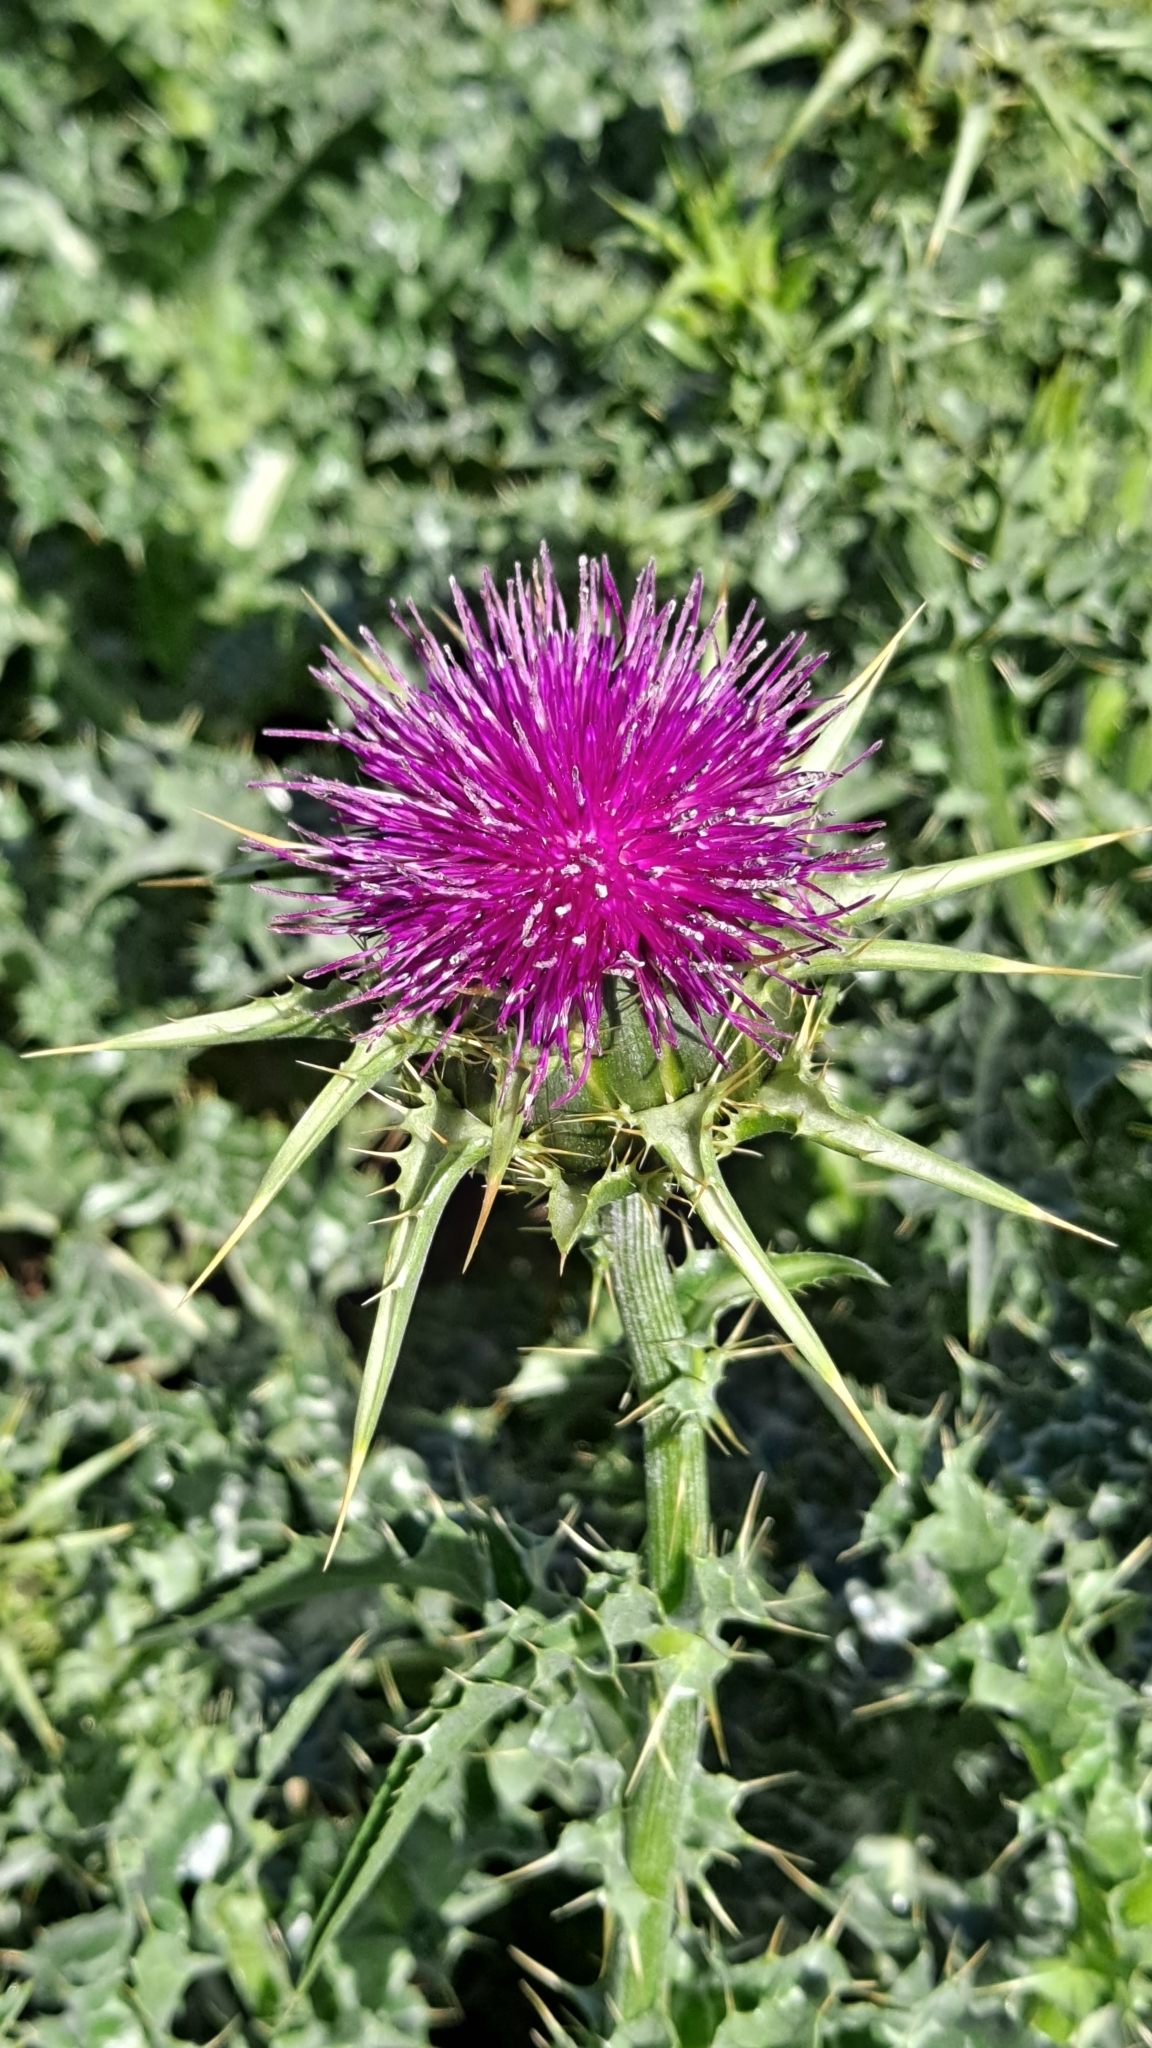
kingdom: Plantae
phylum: Tracheophyta
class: Magnoliopsida
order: Asterales
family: Asteraceae
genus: Silybum
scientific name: Silybum marianum
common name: Milk thistle
